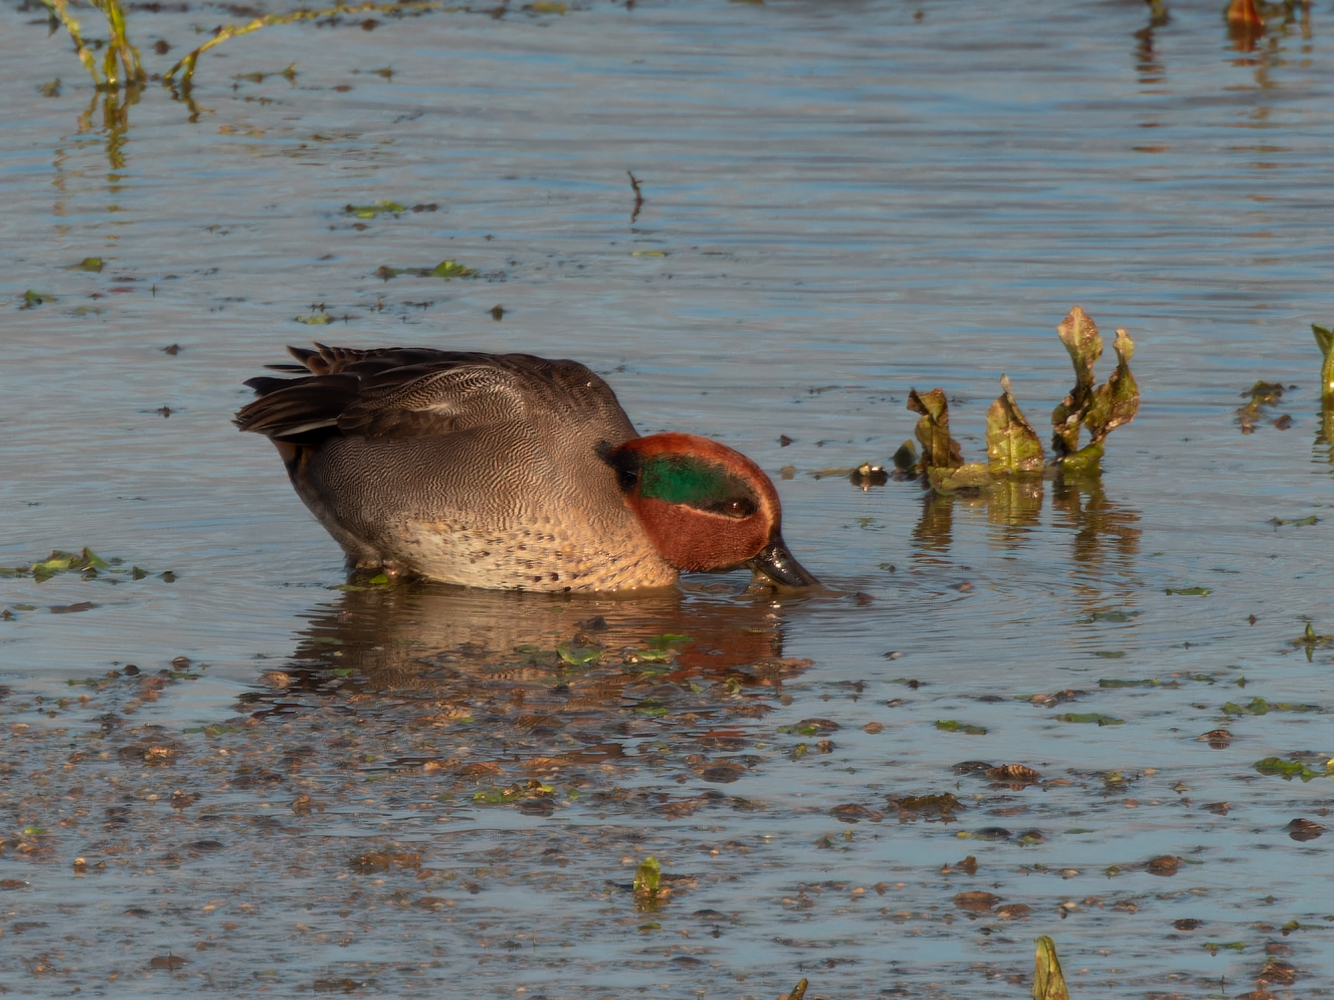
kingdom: Animalia
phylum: Chordata
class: Aves
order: Anseriformes
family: Anatidae
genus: Anas
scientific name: Anas crecca
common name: Eurasian teal
